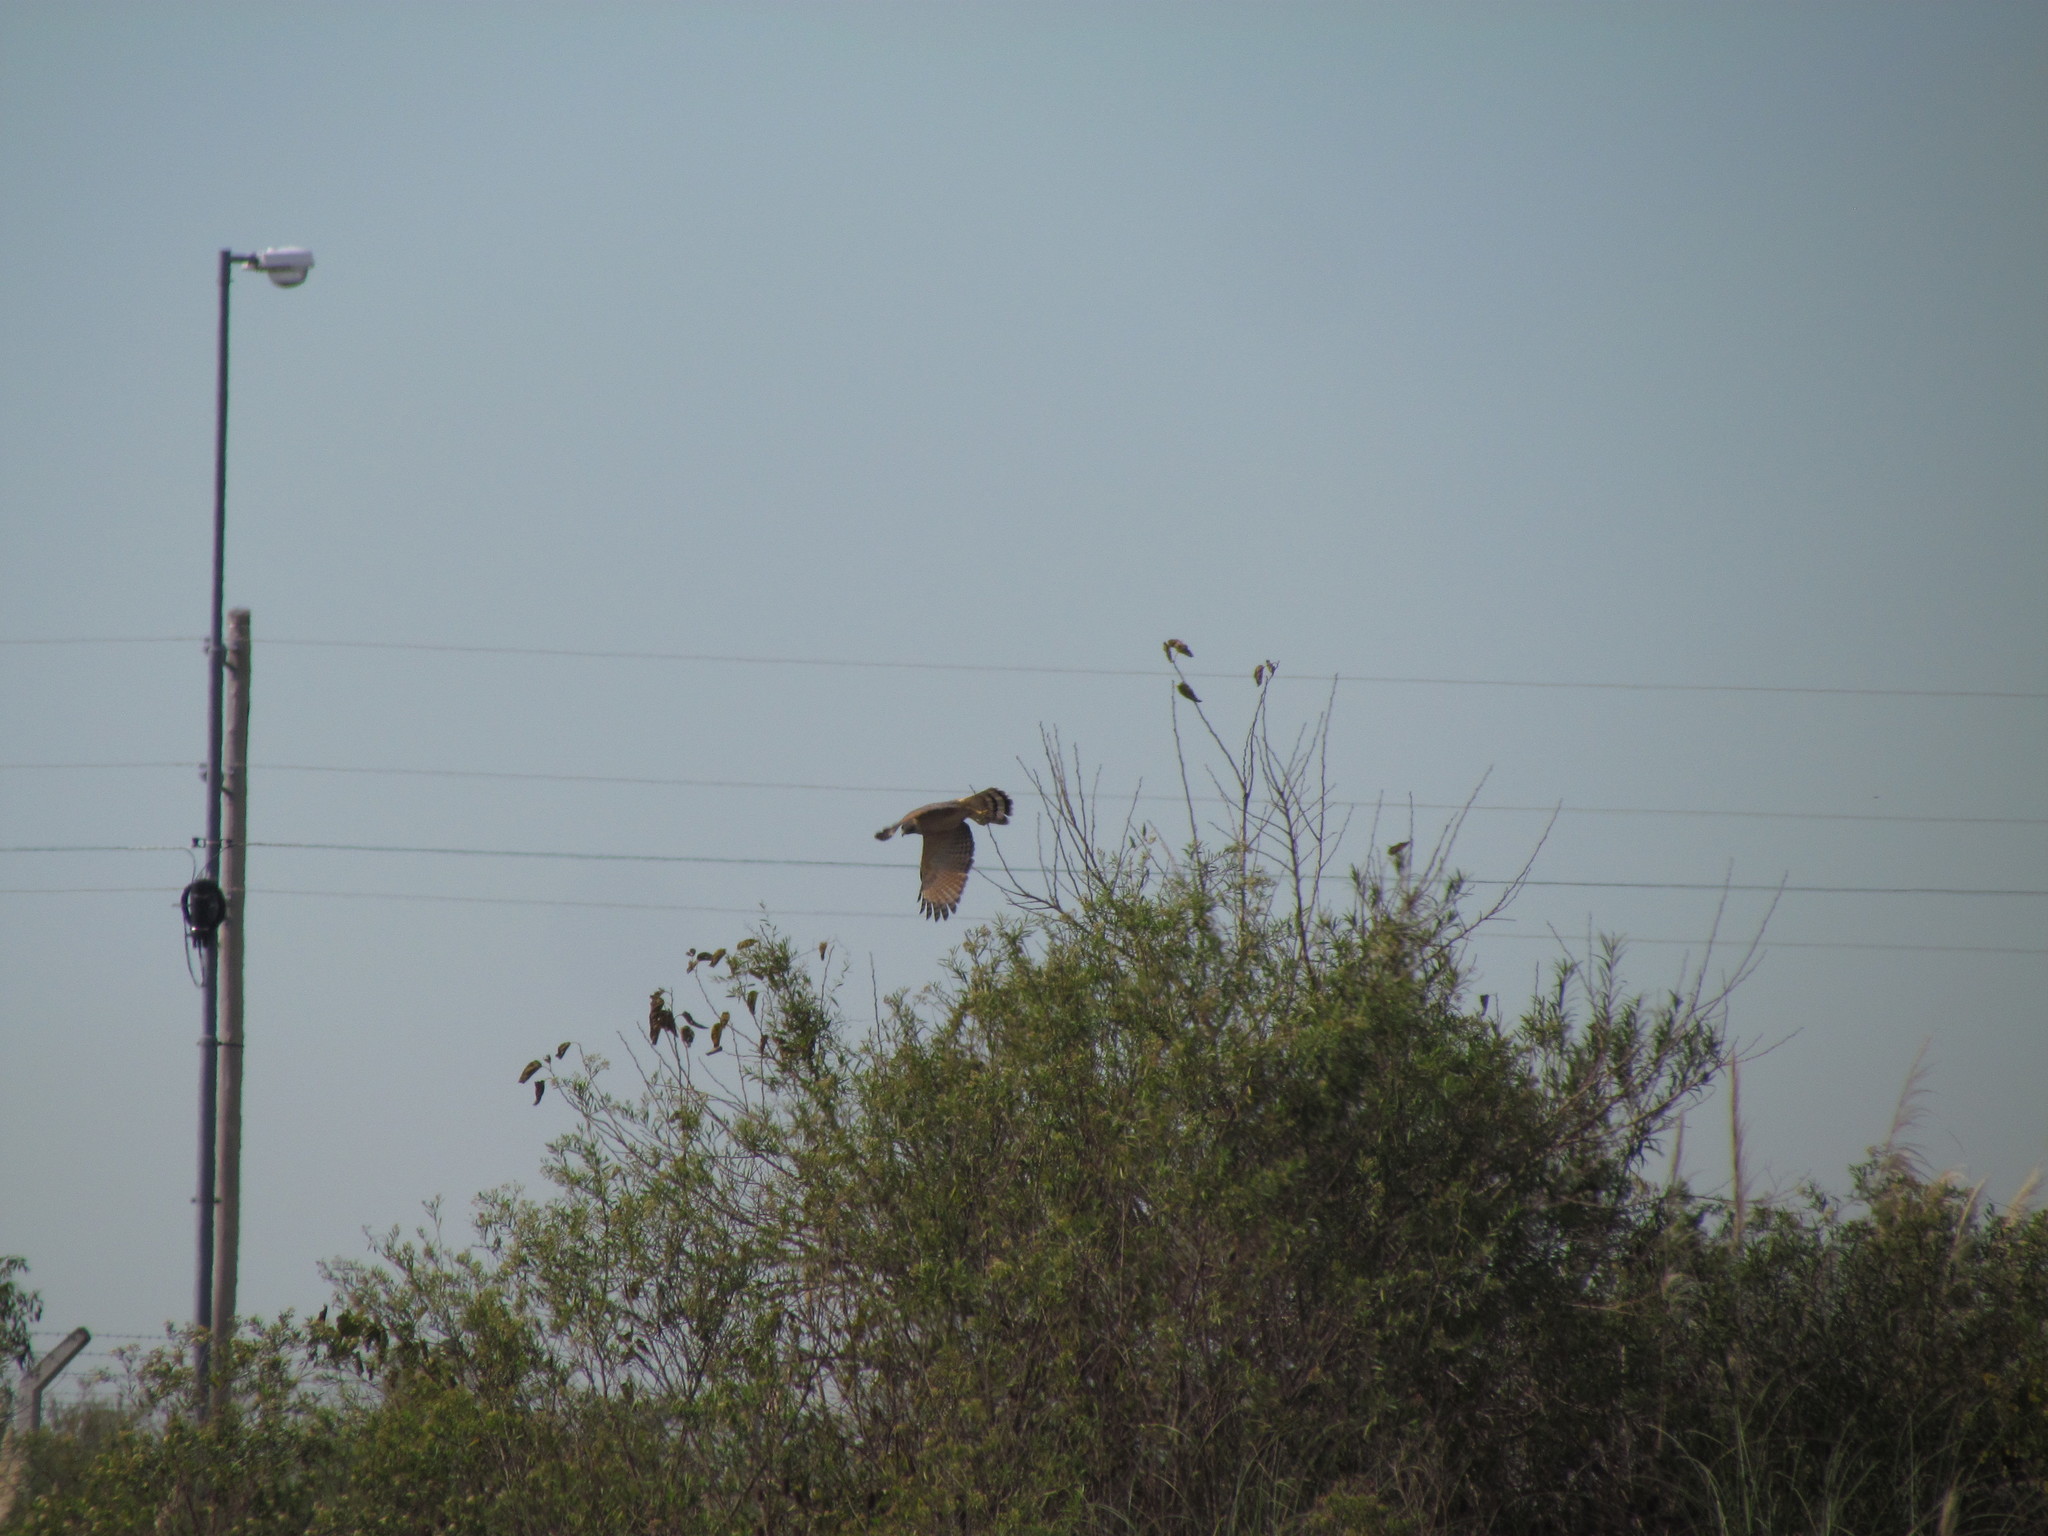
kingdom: Animalia
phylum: Chordata
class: Aves
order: Accipitriformes
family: Accipitridae
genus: Rupornis
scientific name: Rupornis magnirostris
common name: Roadside hawk
